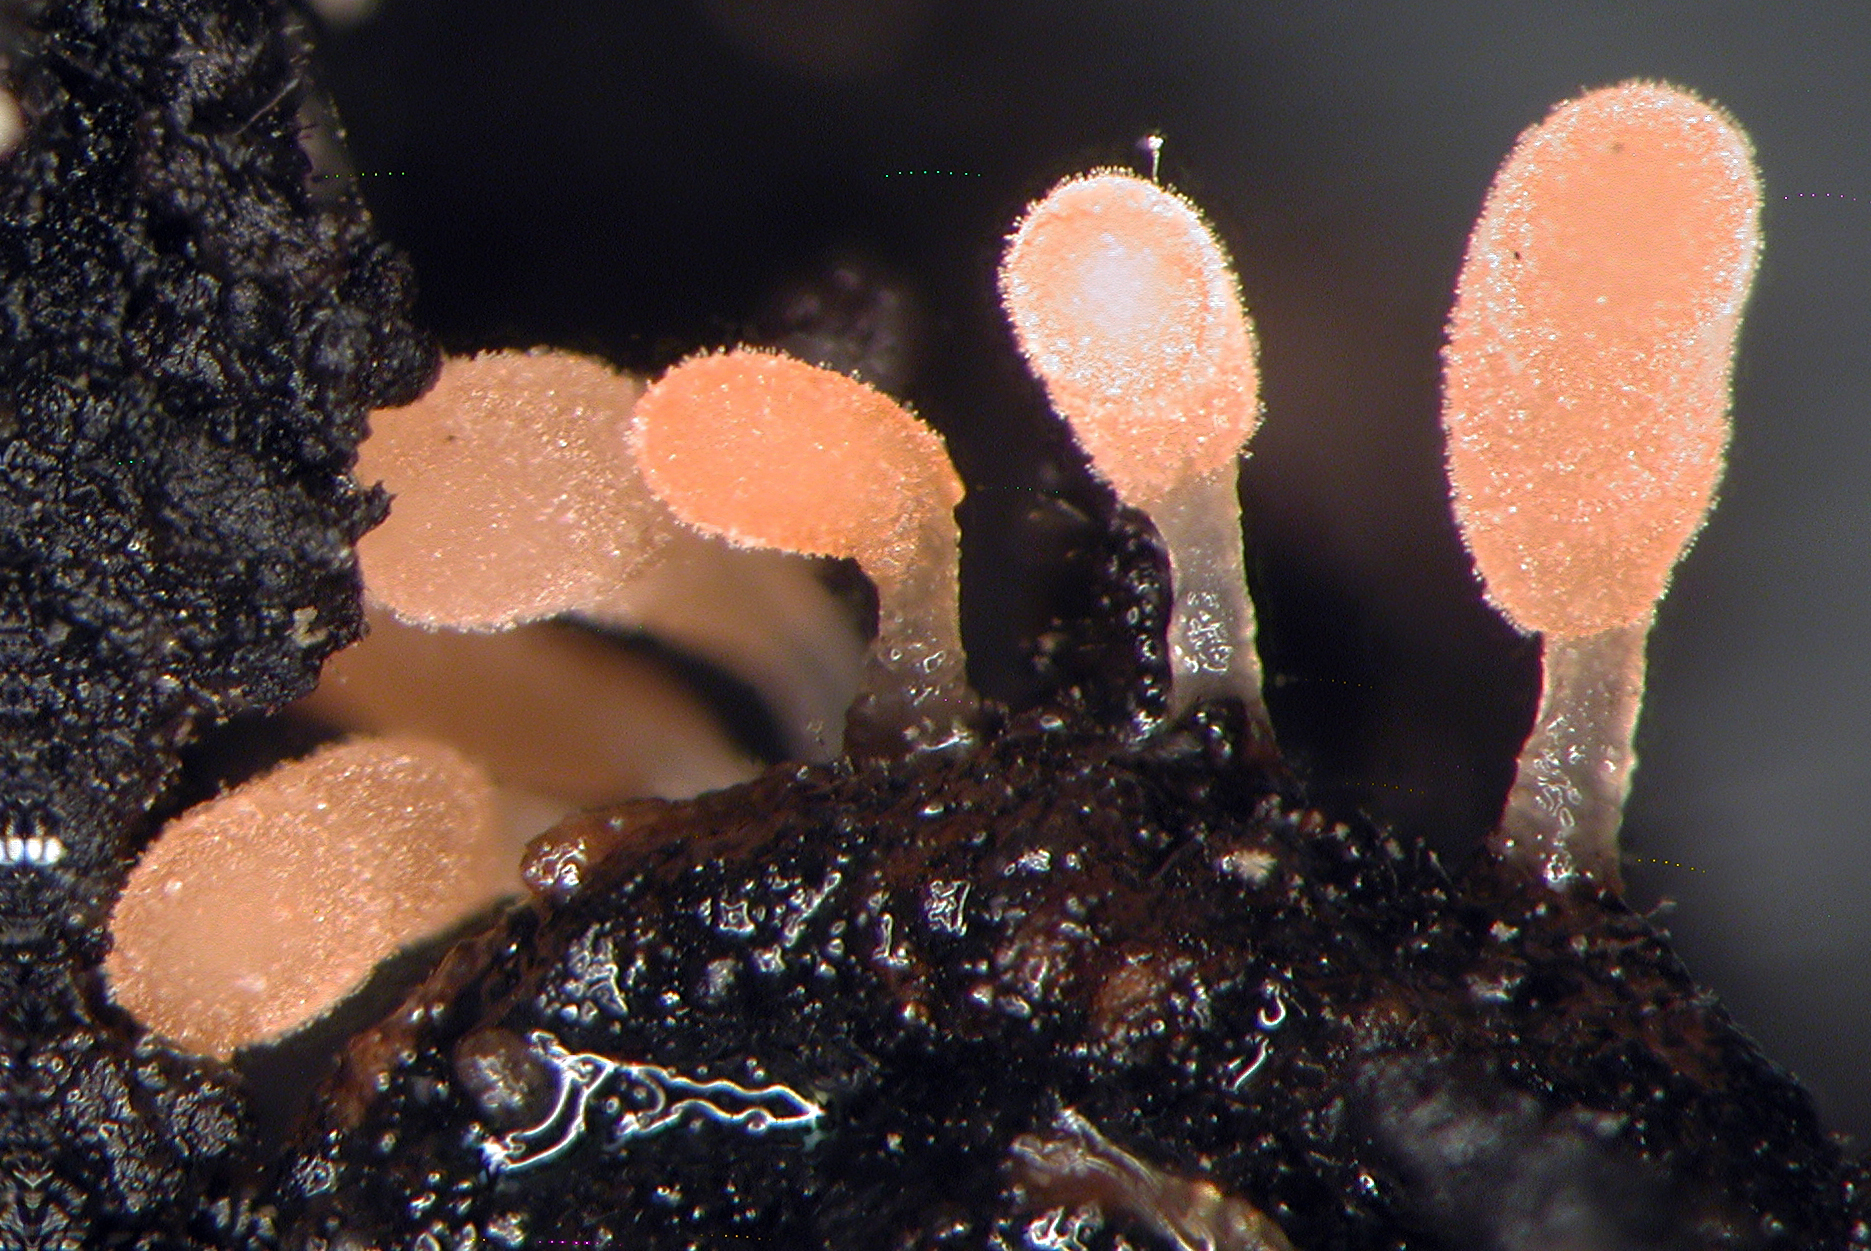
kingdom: Fungi
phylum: Basidiomycota
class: Agaricomycetes
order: Agaricales
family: Typhulaceae
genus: Typhula
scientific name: Typhula micans
